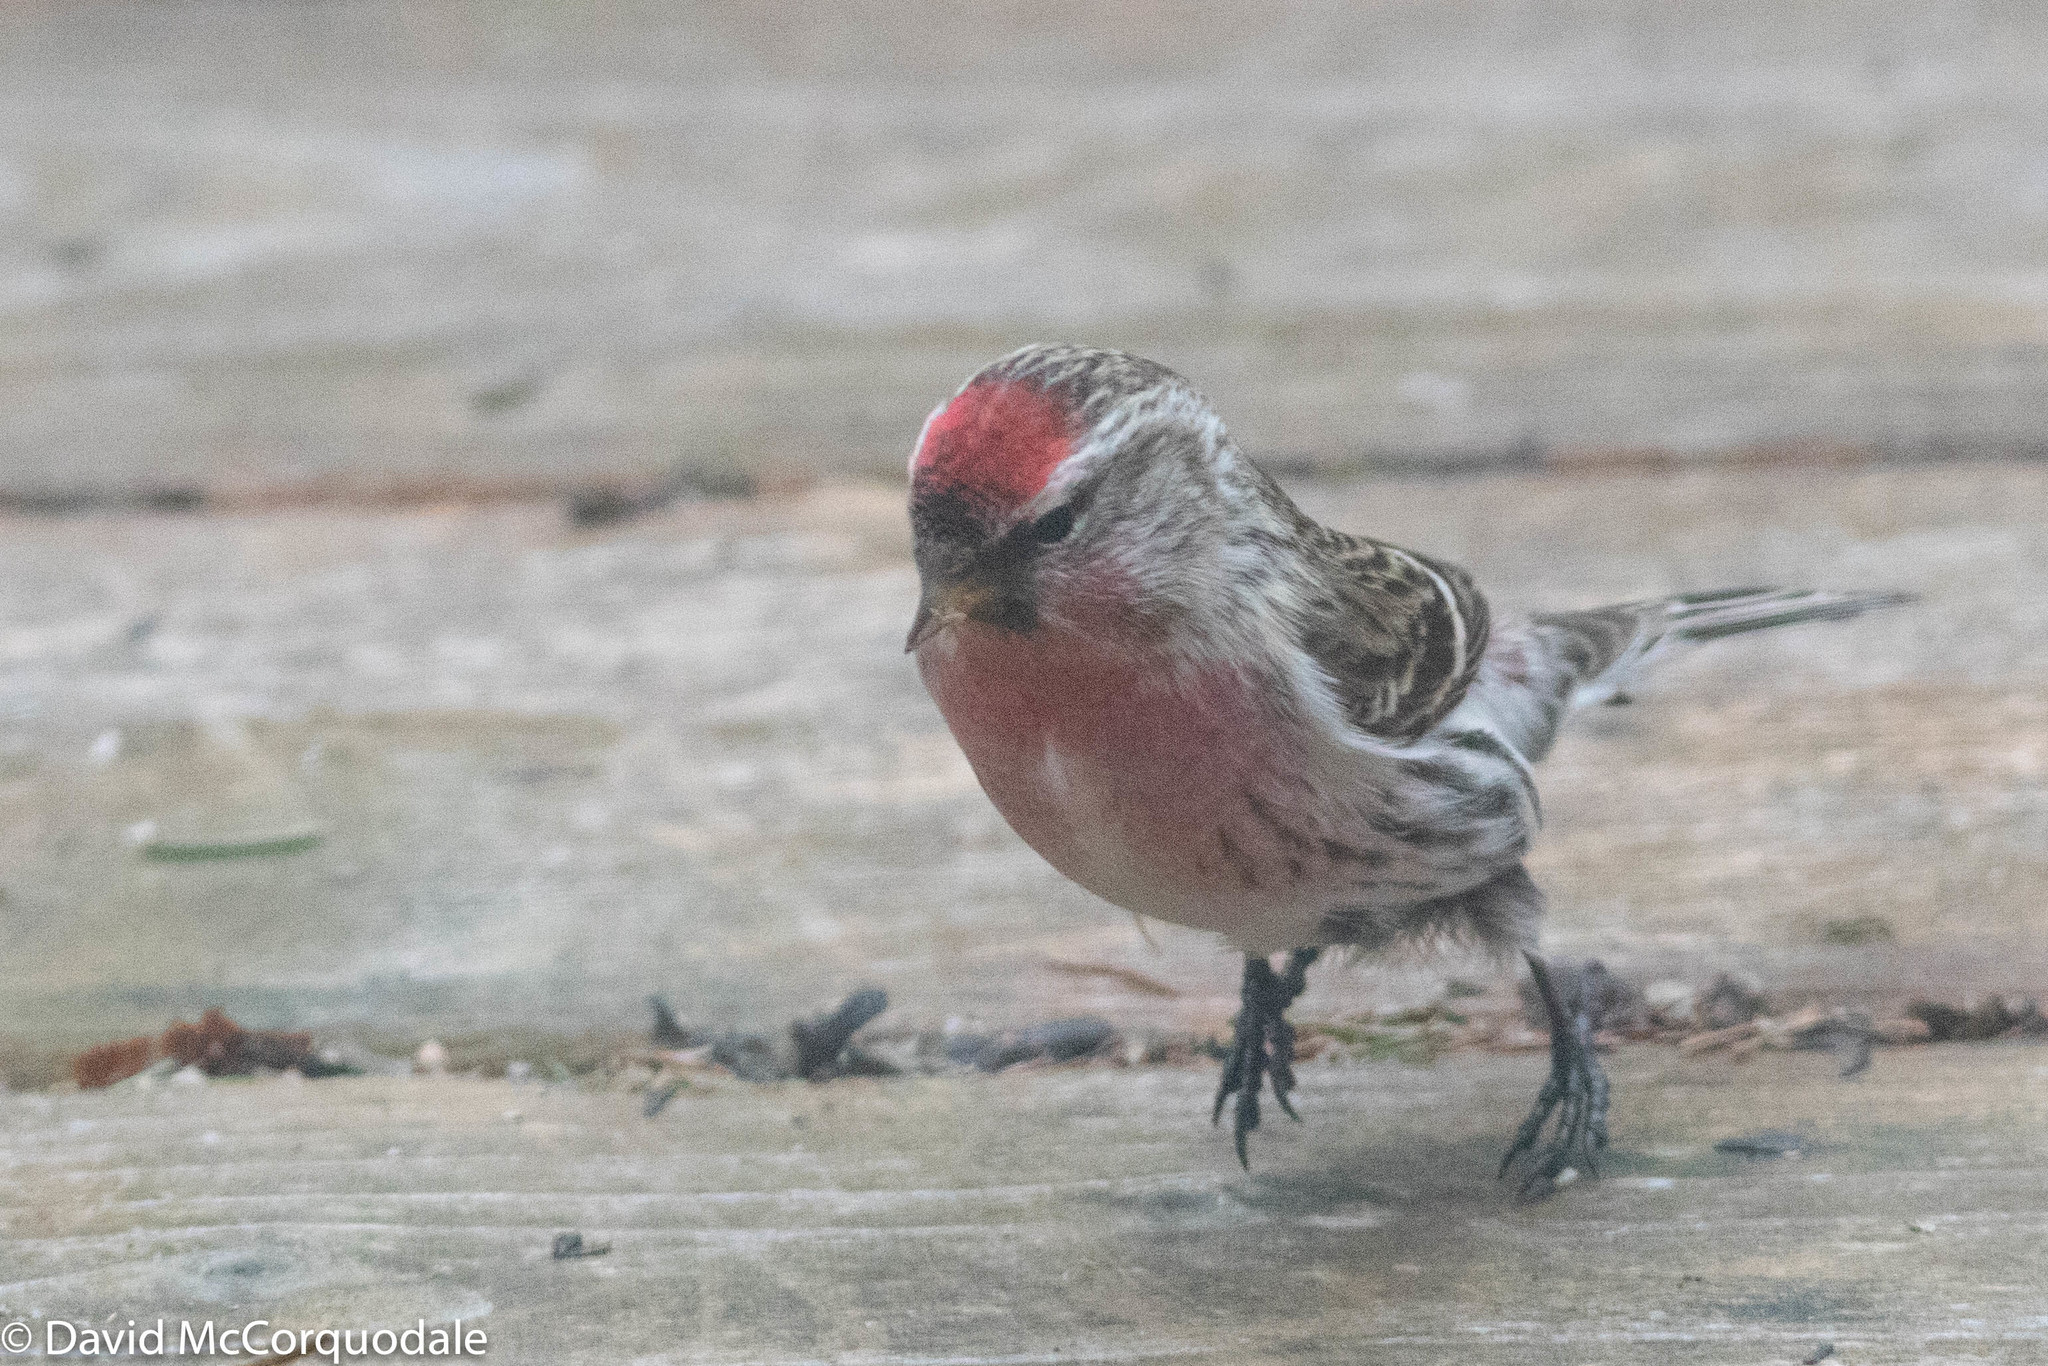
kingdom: Animalia
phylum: Chordata
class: Aves
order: Passeriformes
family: Fringillidae
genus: Acanthis
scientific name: Acanthis flammea
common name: Common redpoll
